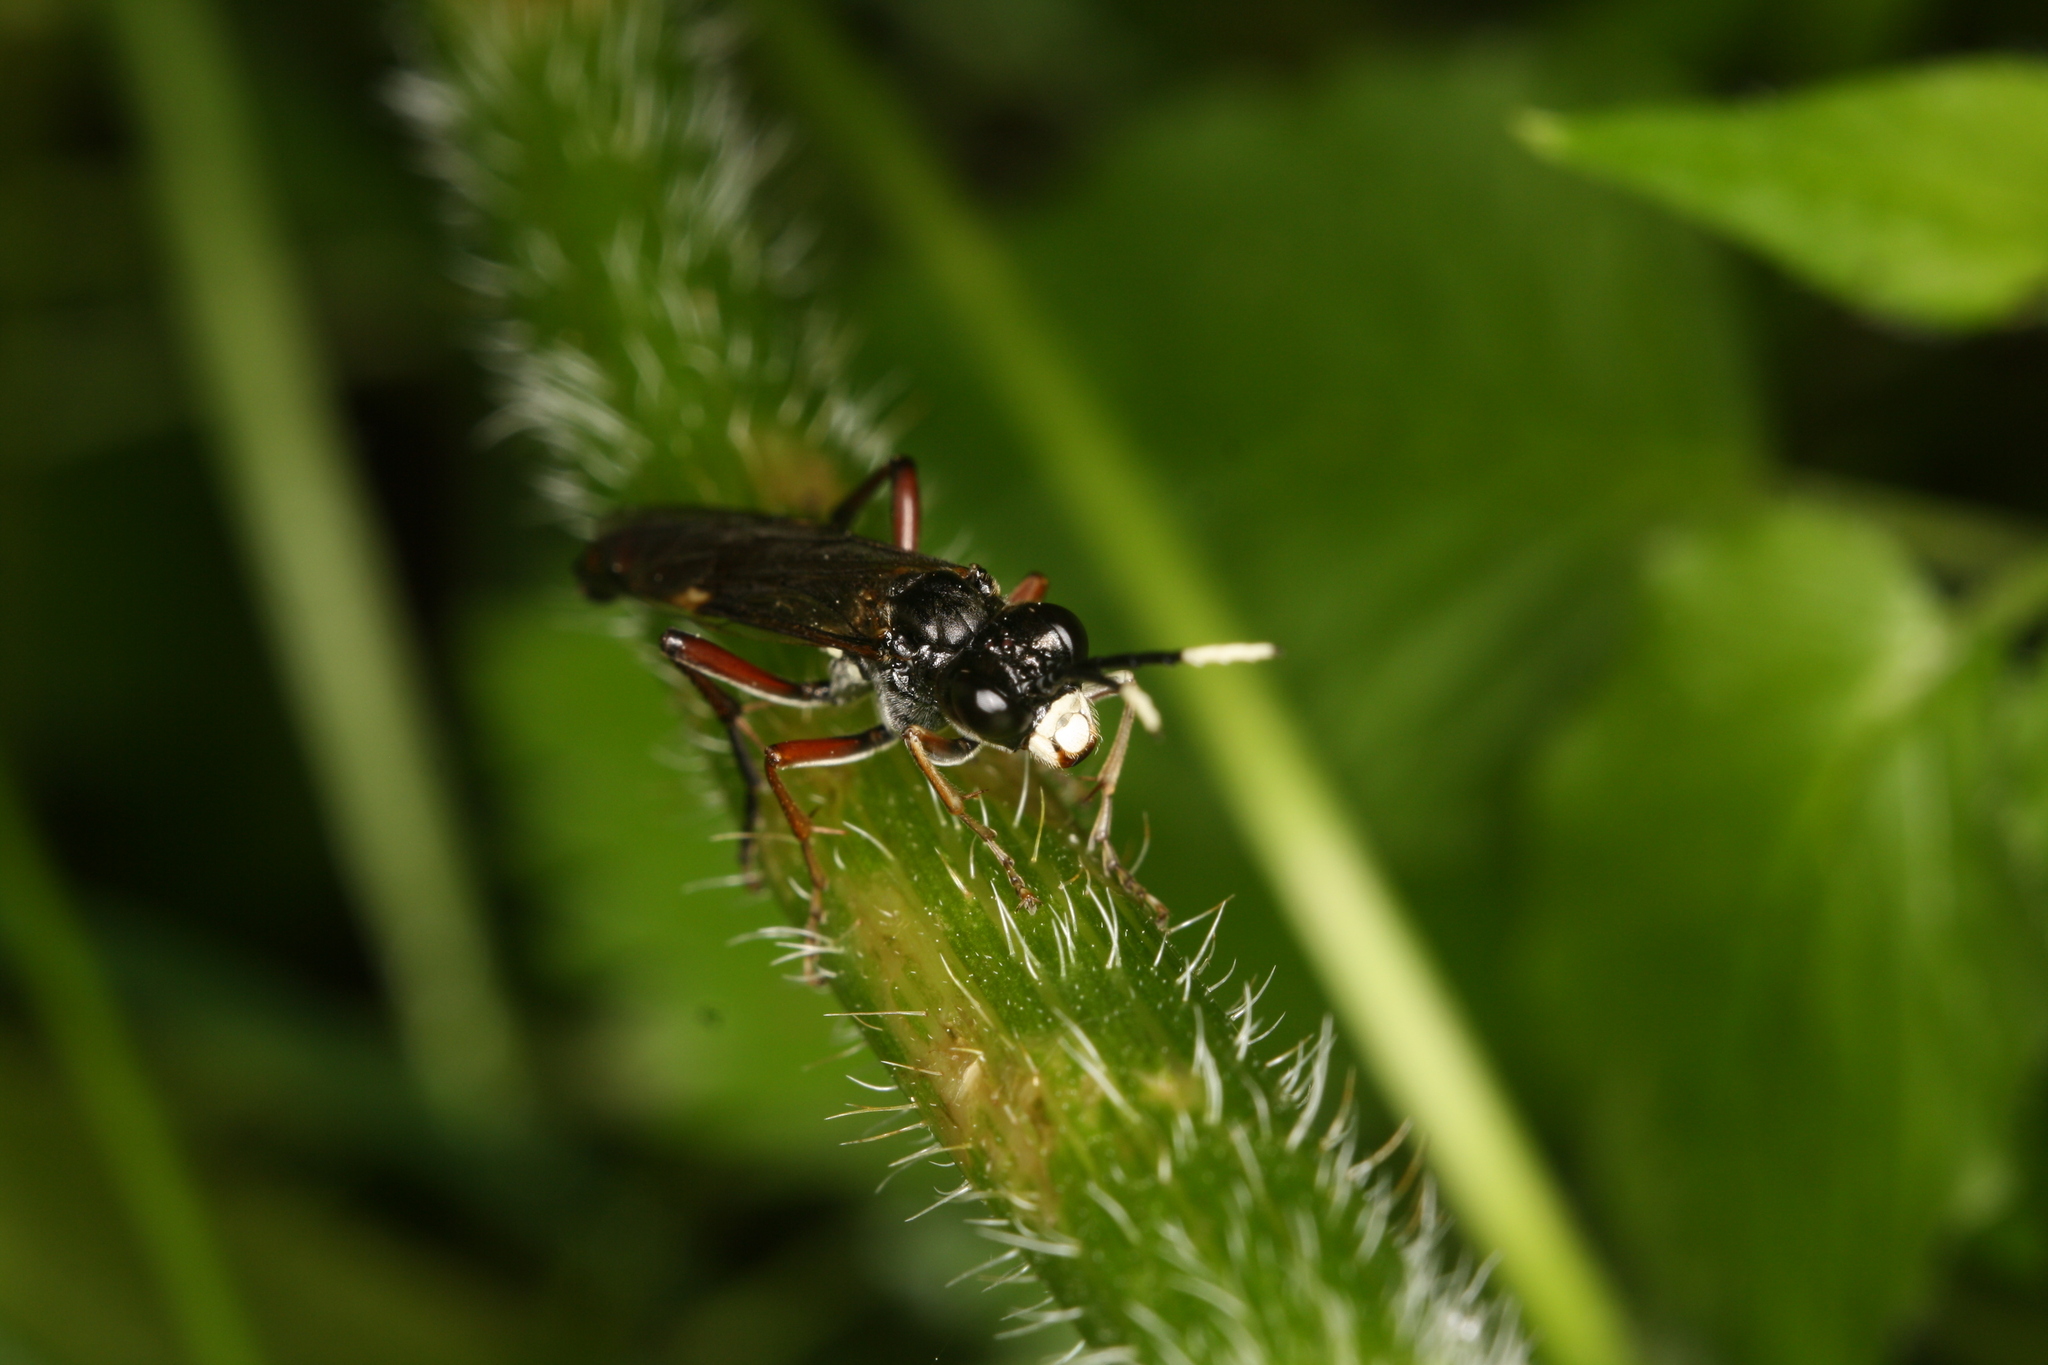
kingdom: Animalia
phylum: Arthropoda
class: Insecta
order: Hymenoptera
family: Tenthredinidae
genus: Tenthredo
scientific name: Tenthredo livida
